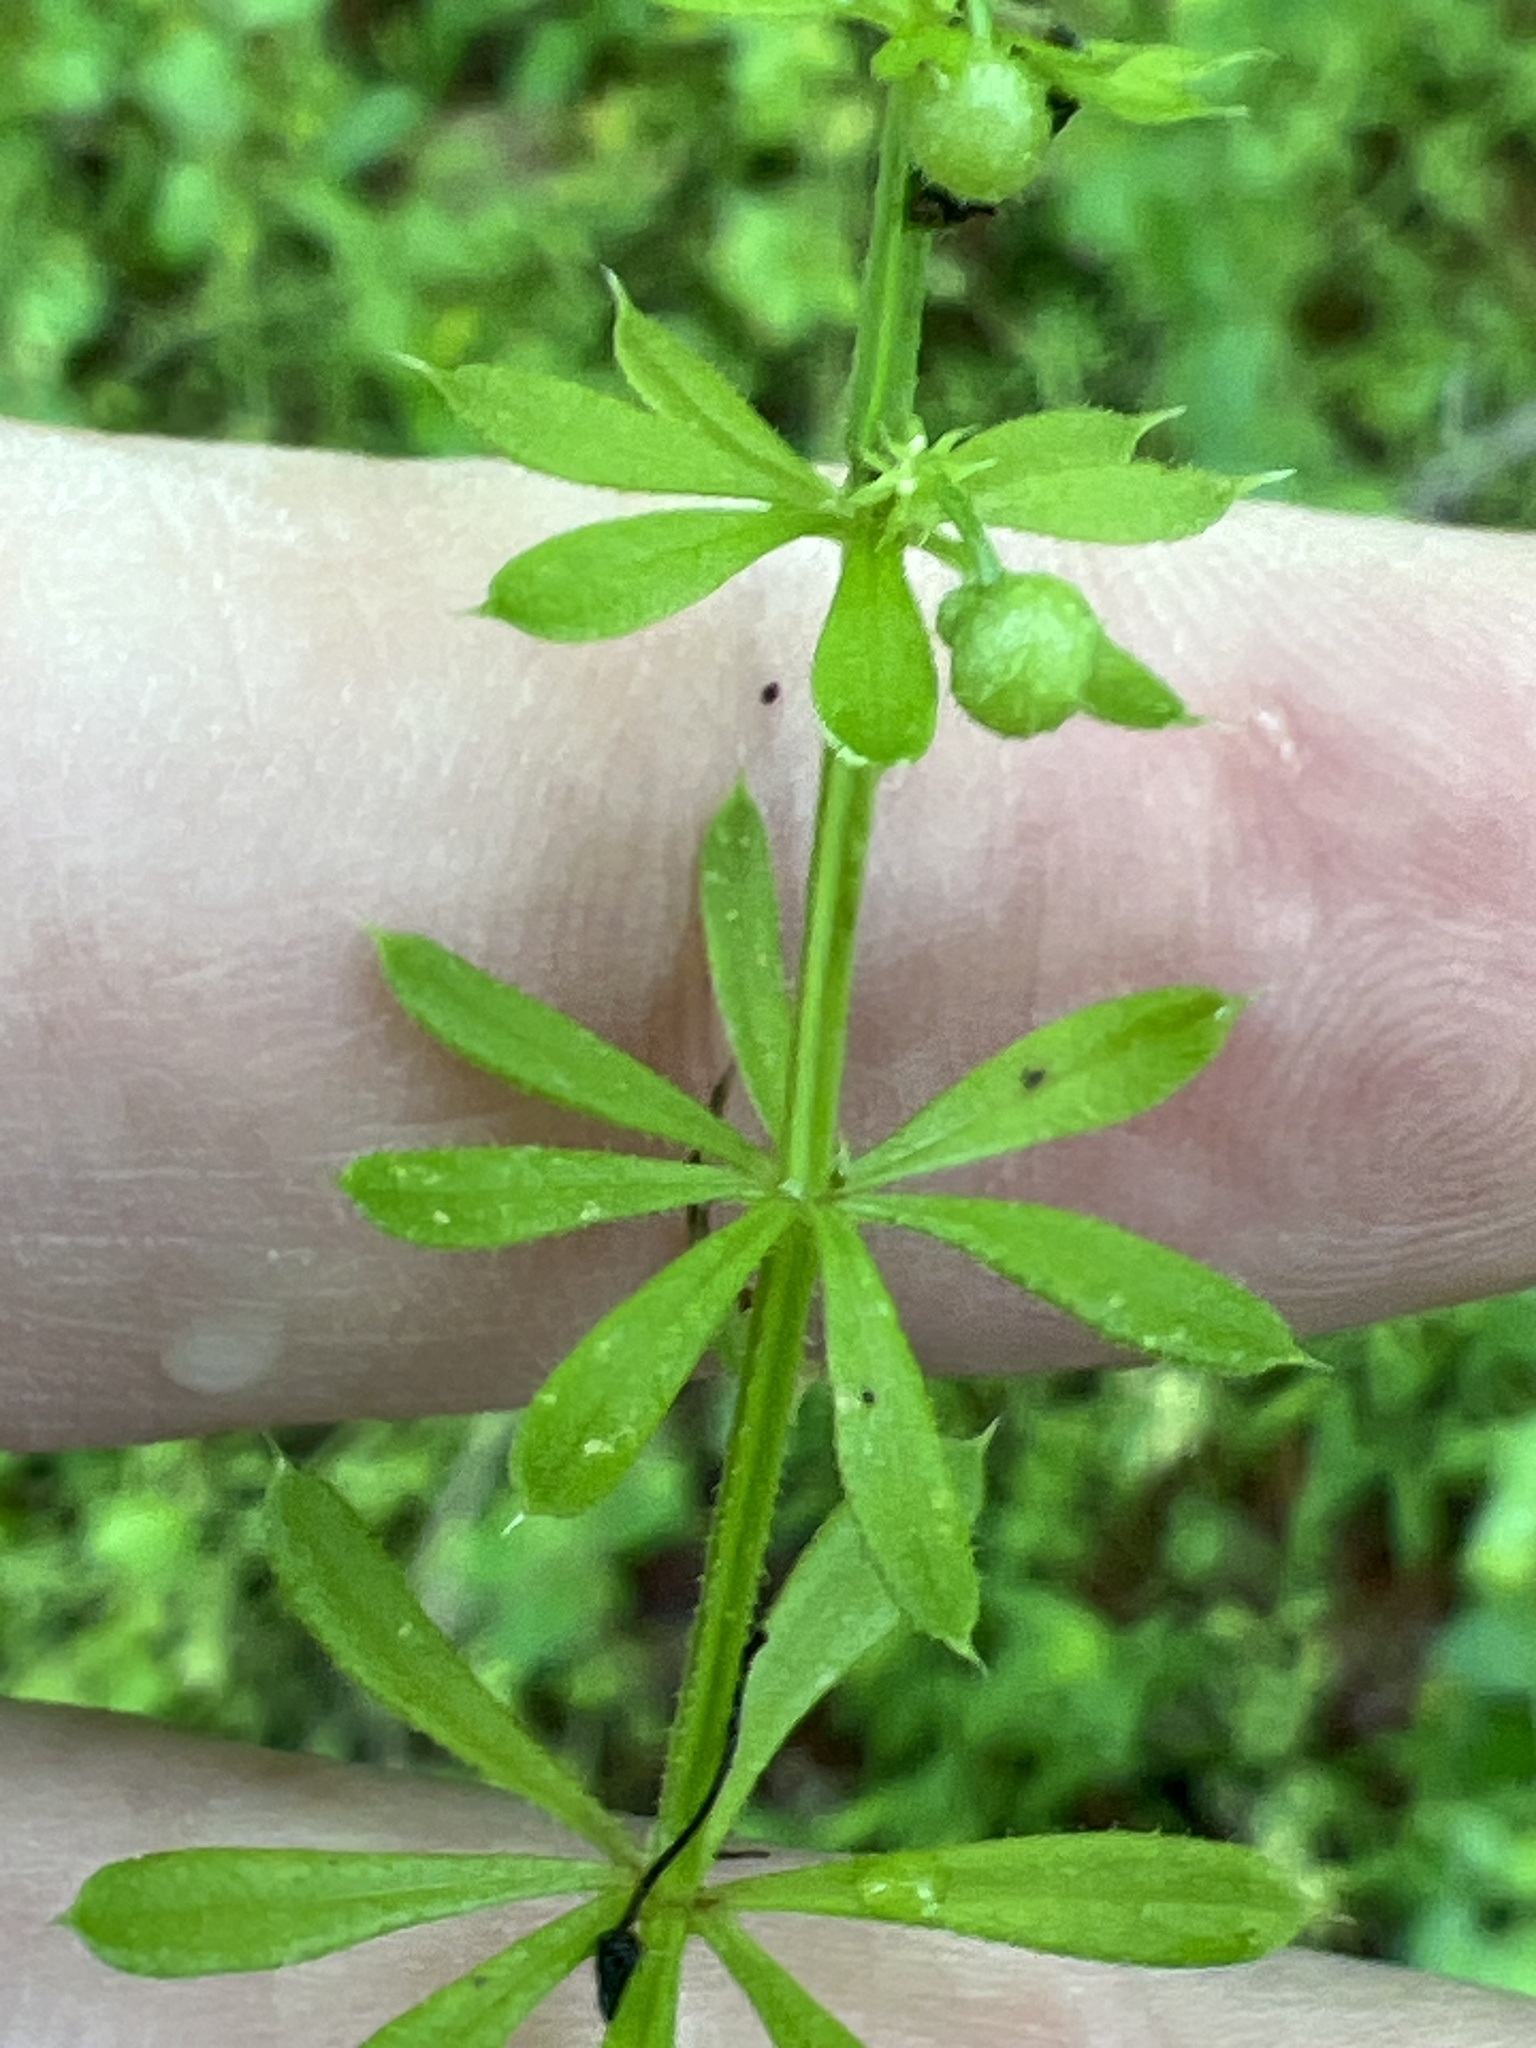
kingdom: Plantae
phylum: Tracheophyta
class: Magnoliopsida
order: Gentianales
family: Rubiaceae
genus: Galium
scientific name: Galium aparine
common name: Cleavers
